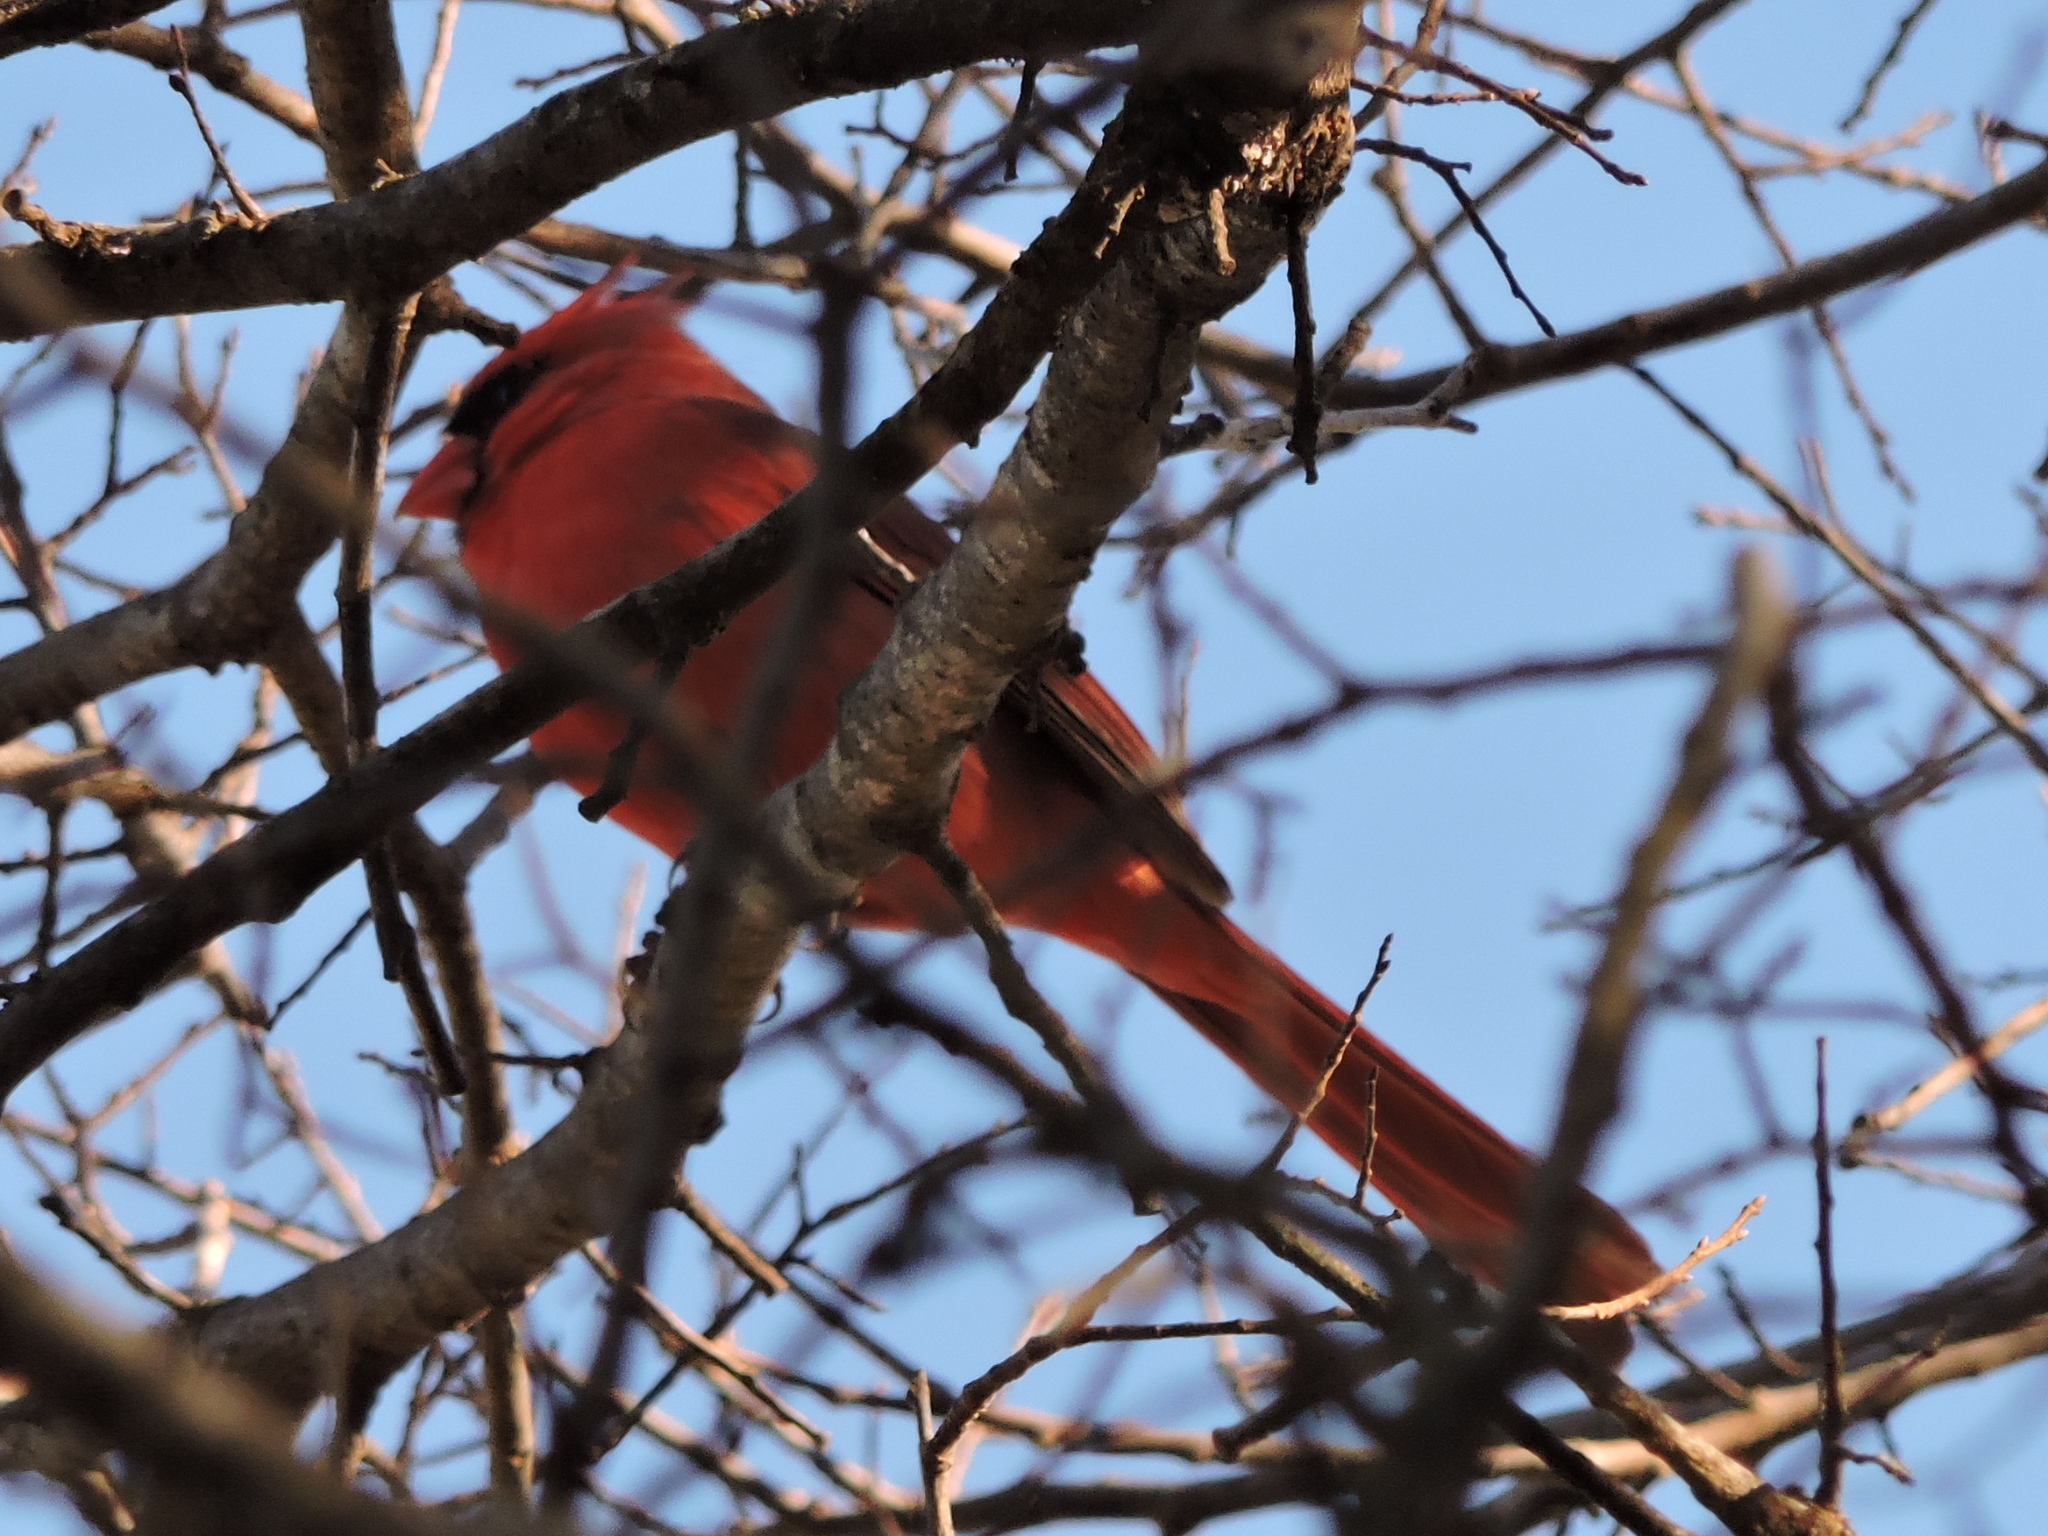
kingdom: Animalia
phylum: Chordata
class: Aves
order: Passeriformes
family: Cardinalidae
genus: Cardinalis
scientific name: Cardinalis cardinalis
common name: Northern cardinal
